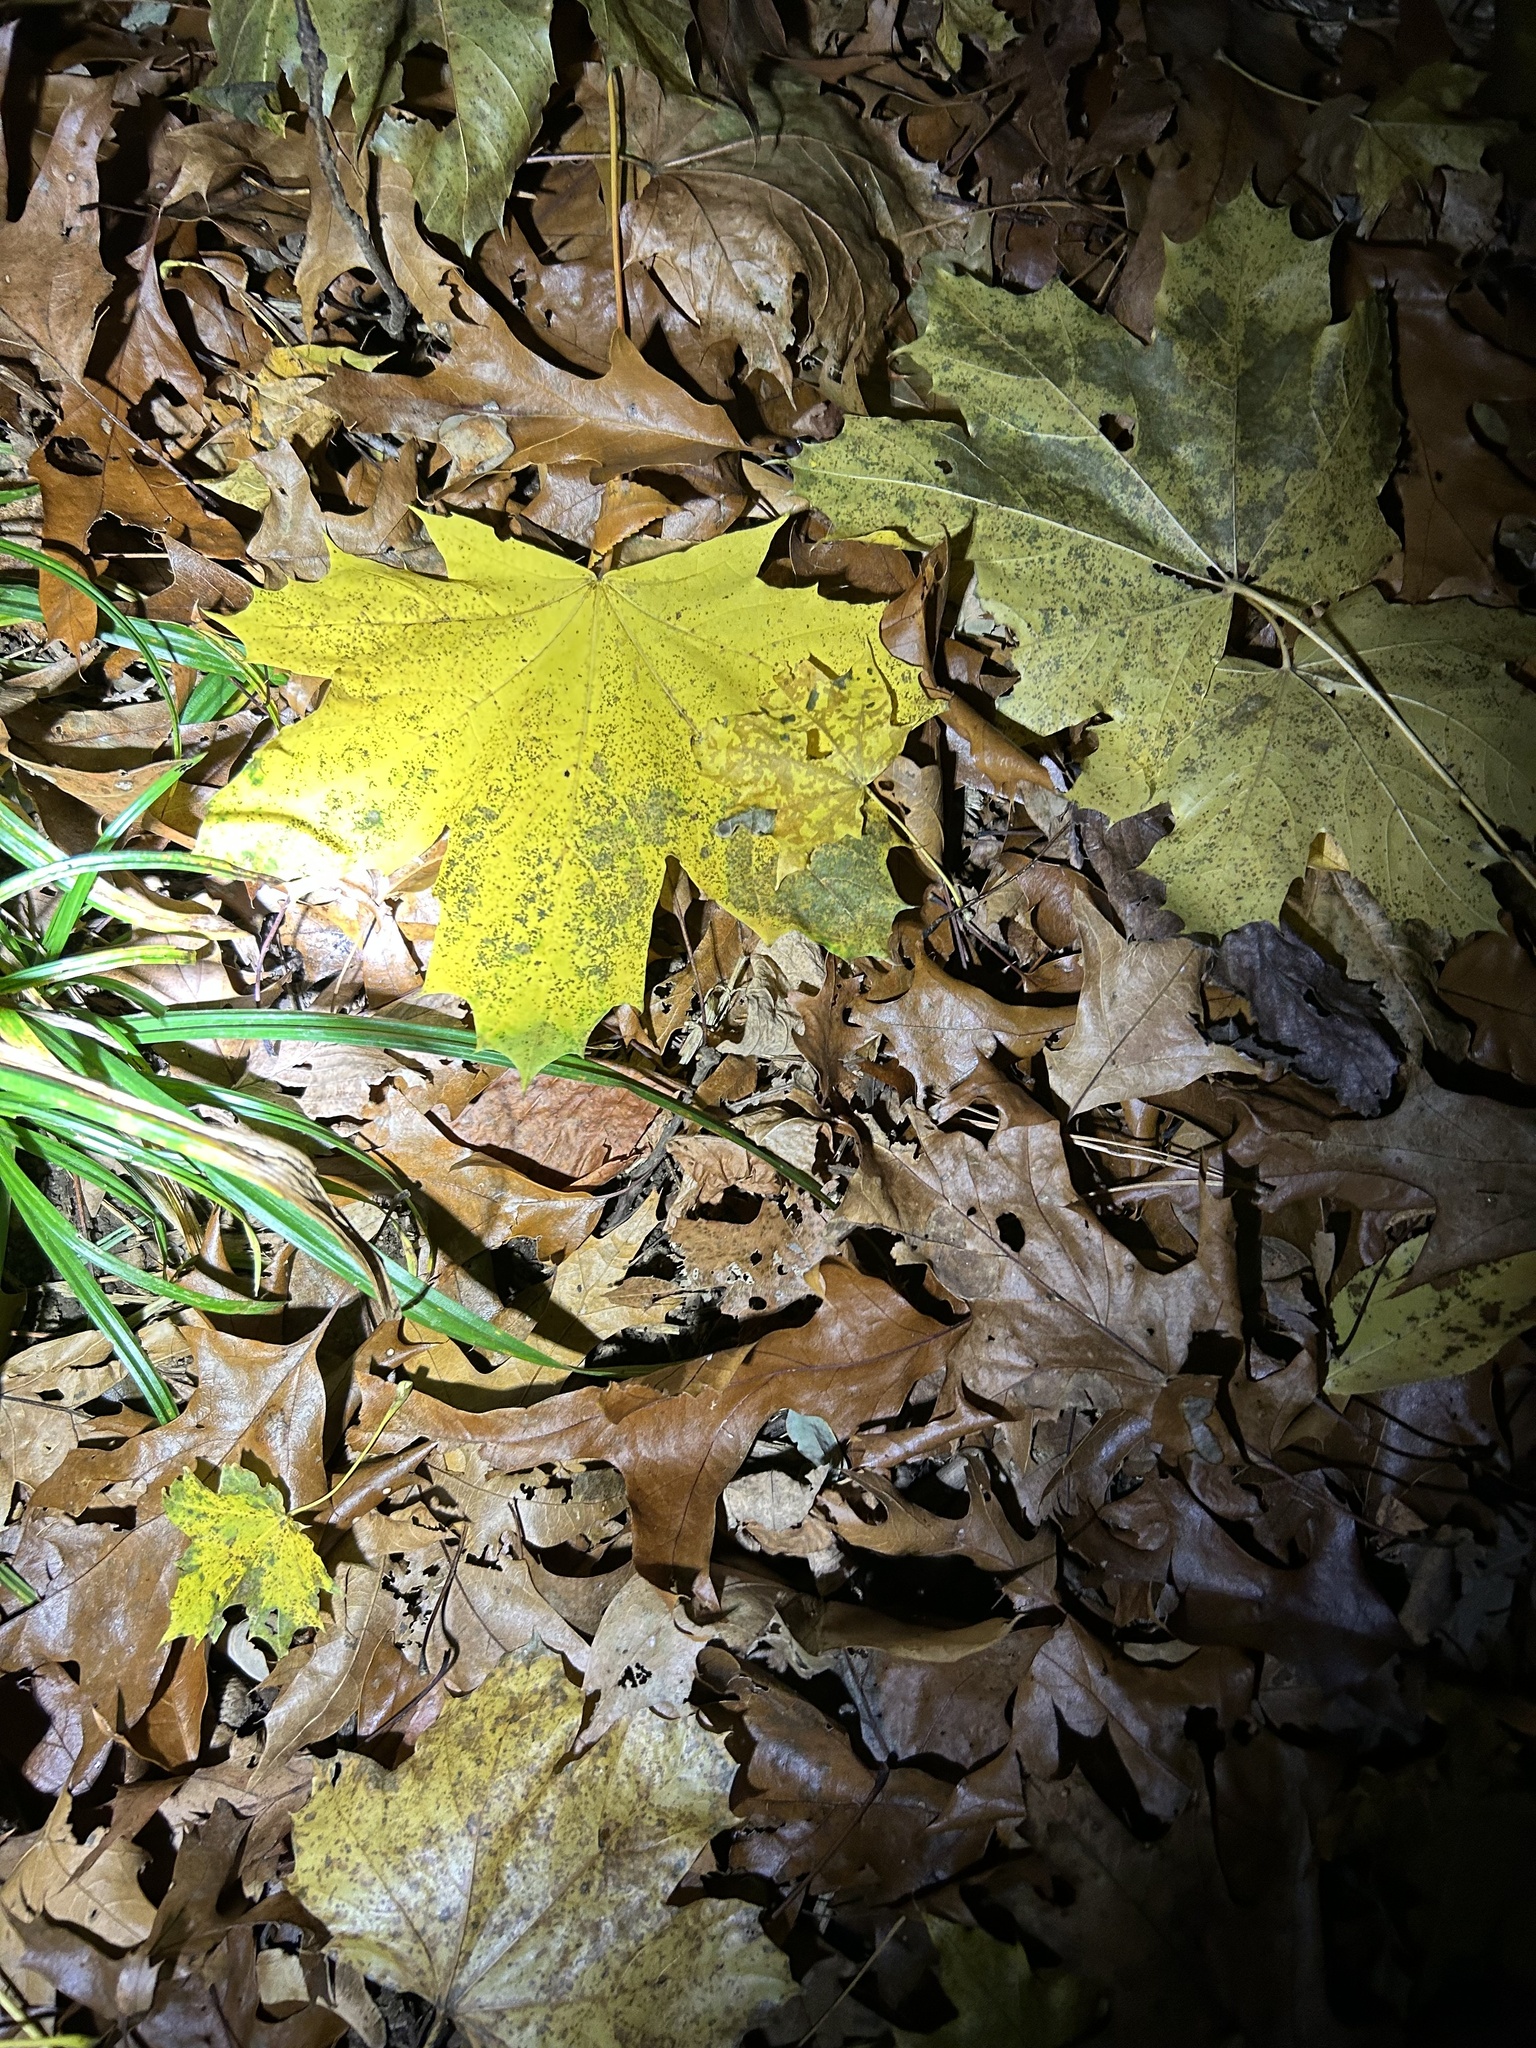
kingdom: Plantae
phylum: Tracheophyta
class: Magnoliopsida
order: Sapindales
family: Sapindaceae
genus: Acer
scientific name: Acer platanoides
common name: Norway maple
